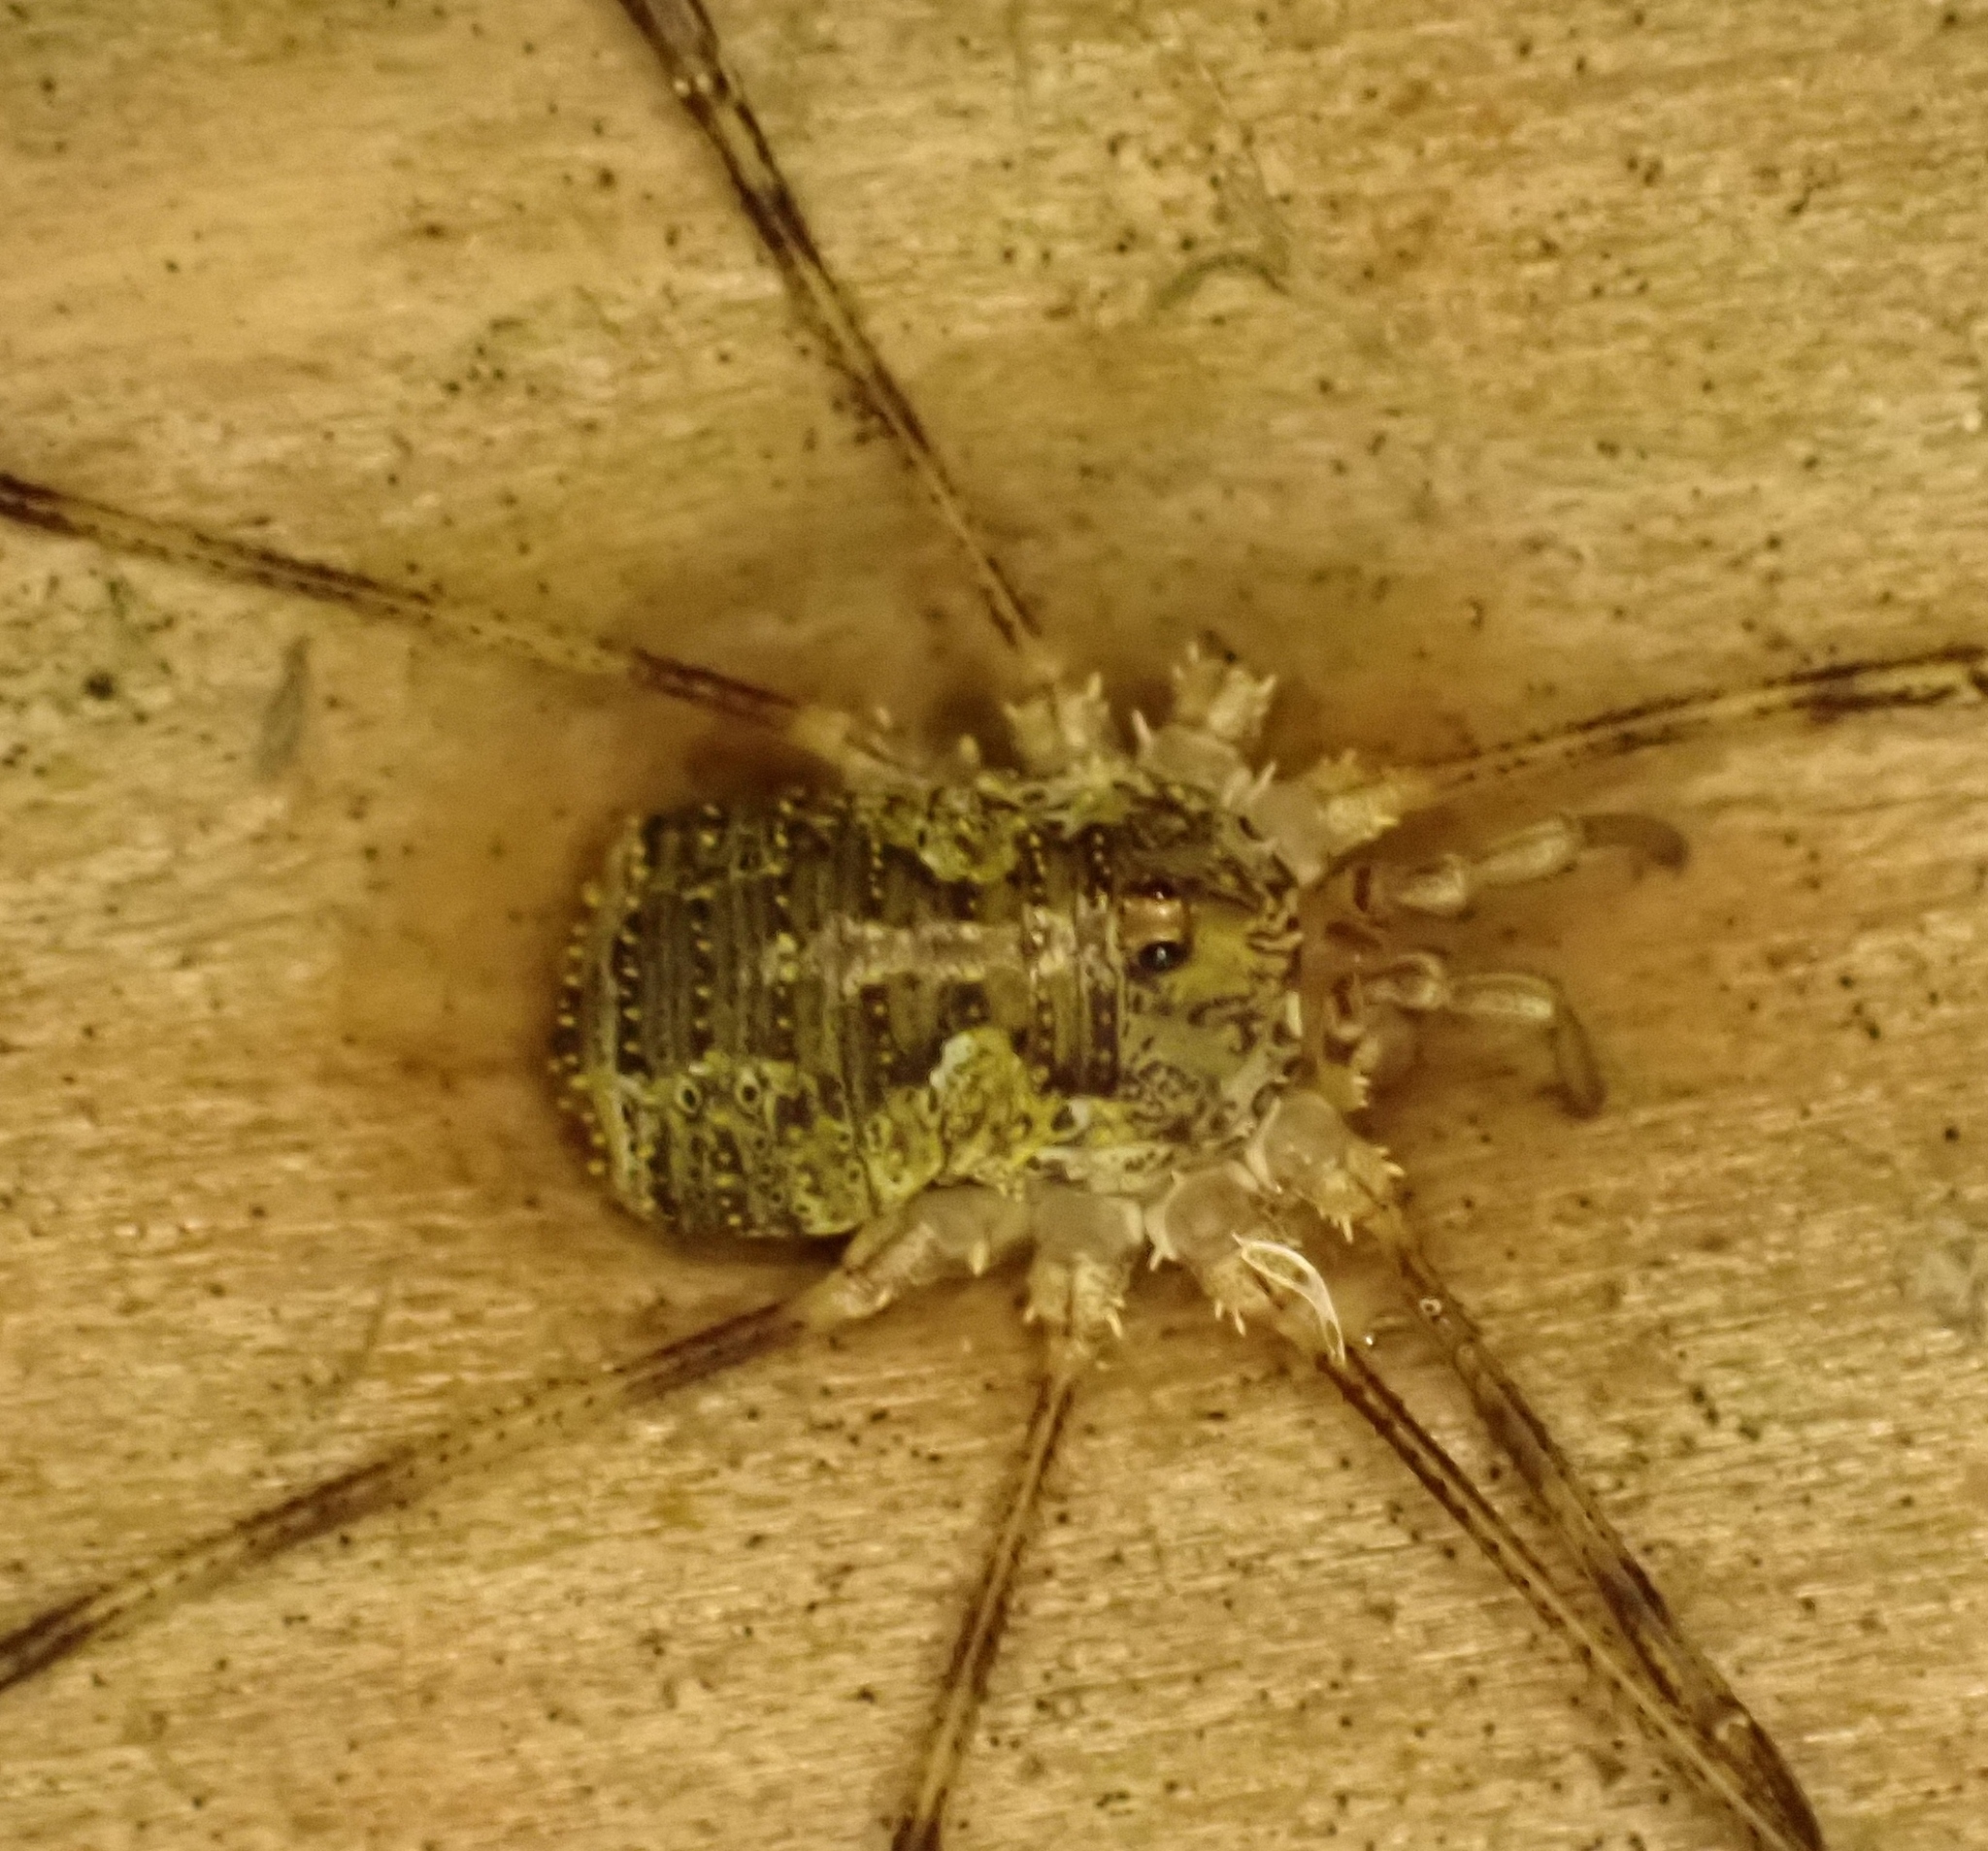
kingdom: Animalia
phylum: Arthropoda
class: Arachnida
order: Opiliones
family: Phalangiidae
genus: Lacinius
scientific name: Lacinius dentiger
